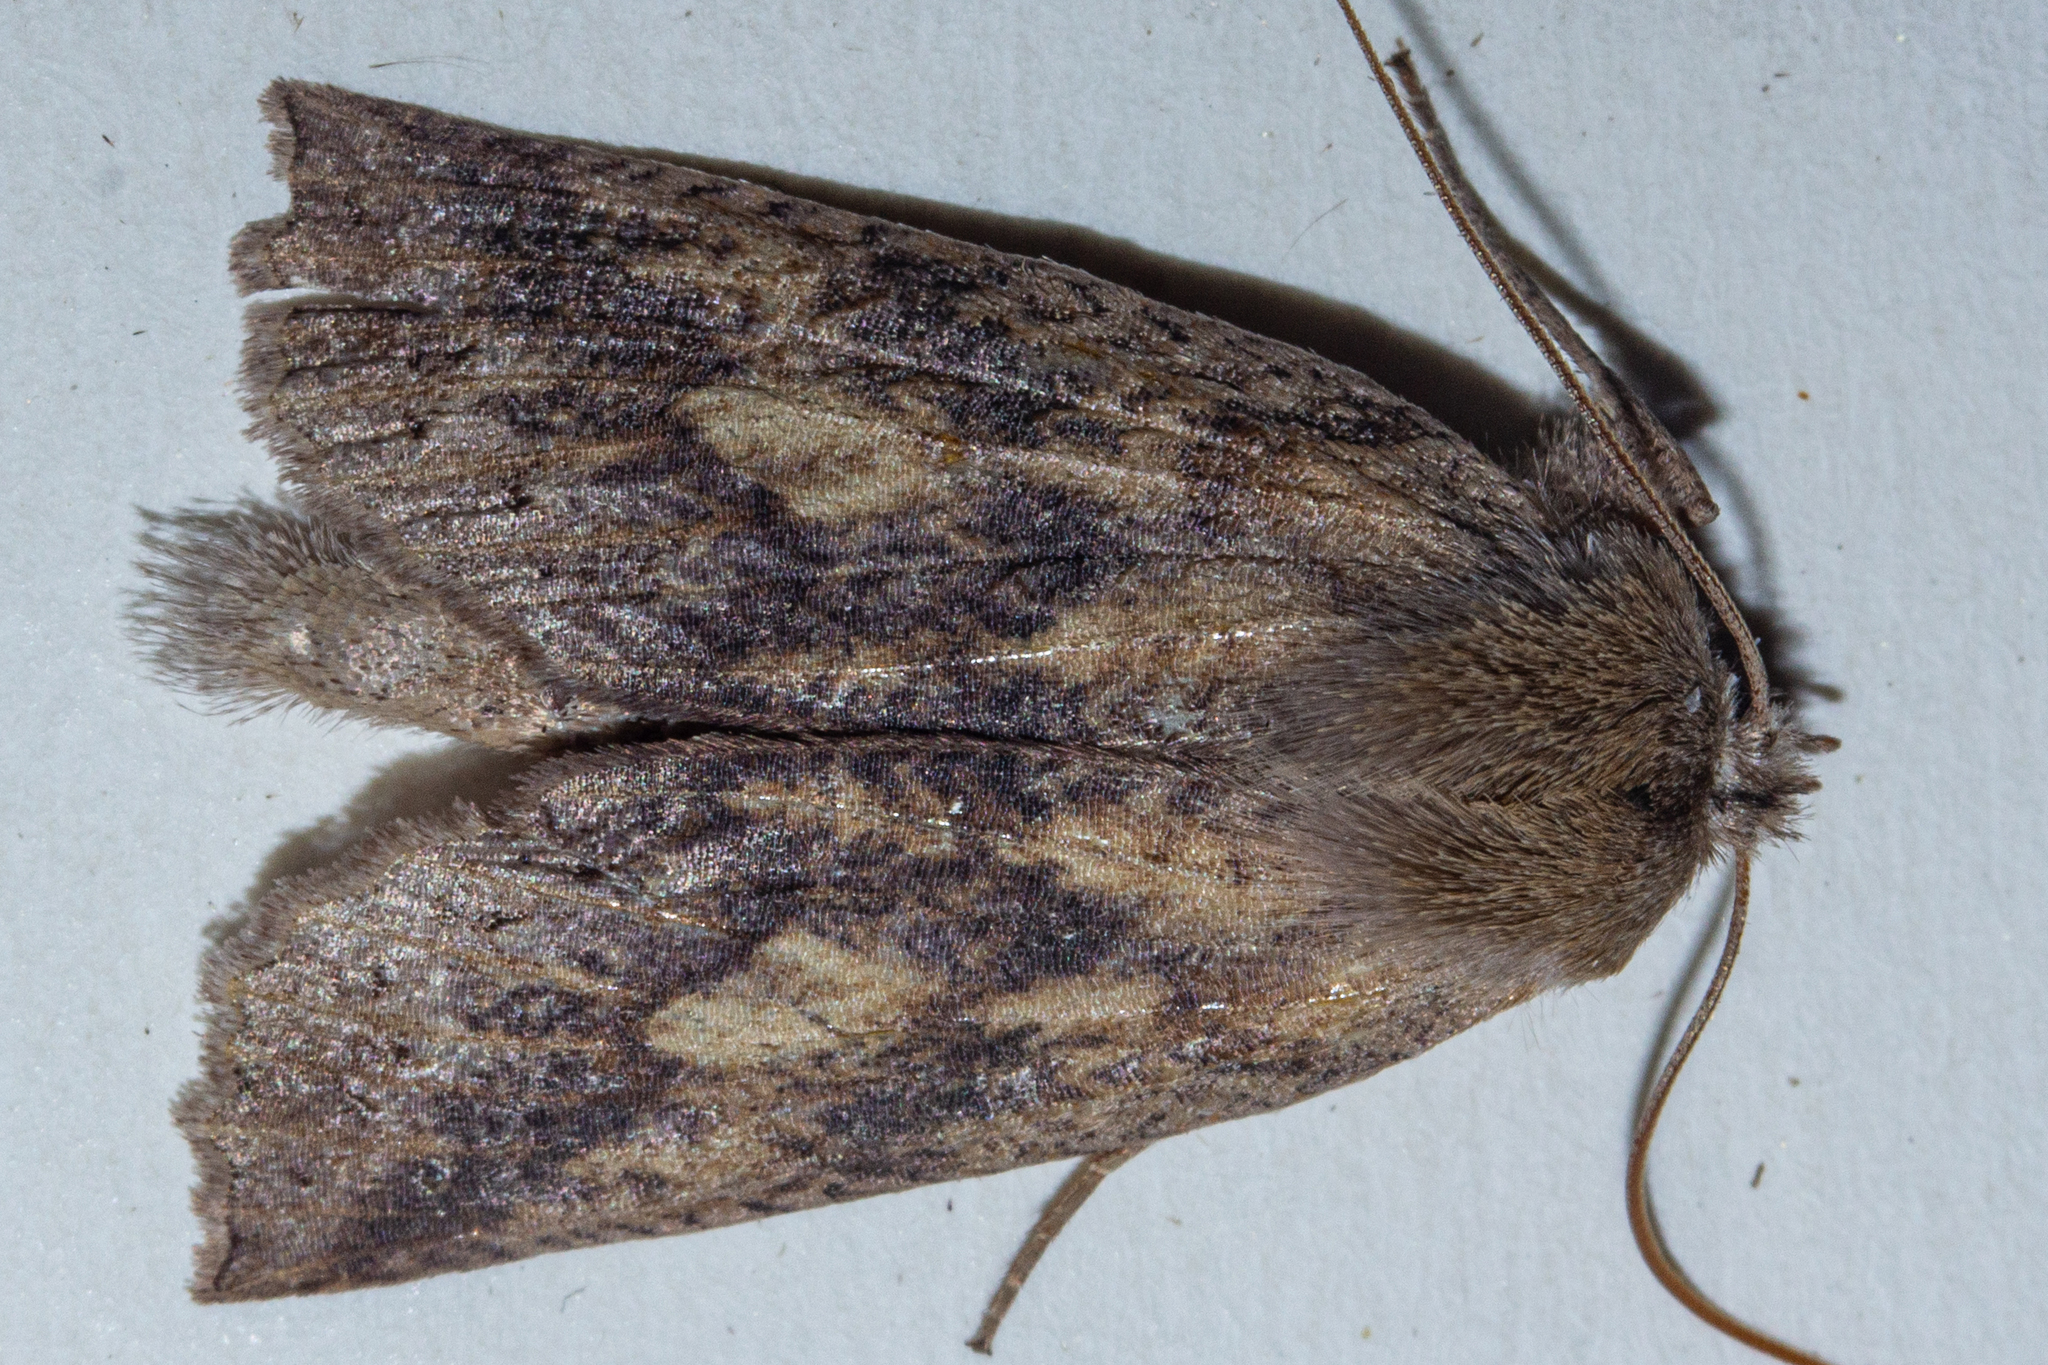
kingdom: Animalia
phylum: Arthropoda
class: Insecta
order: Lepidoptera
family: Geometridae
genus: Declana
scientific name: Declana leptomera
